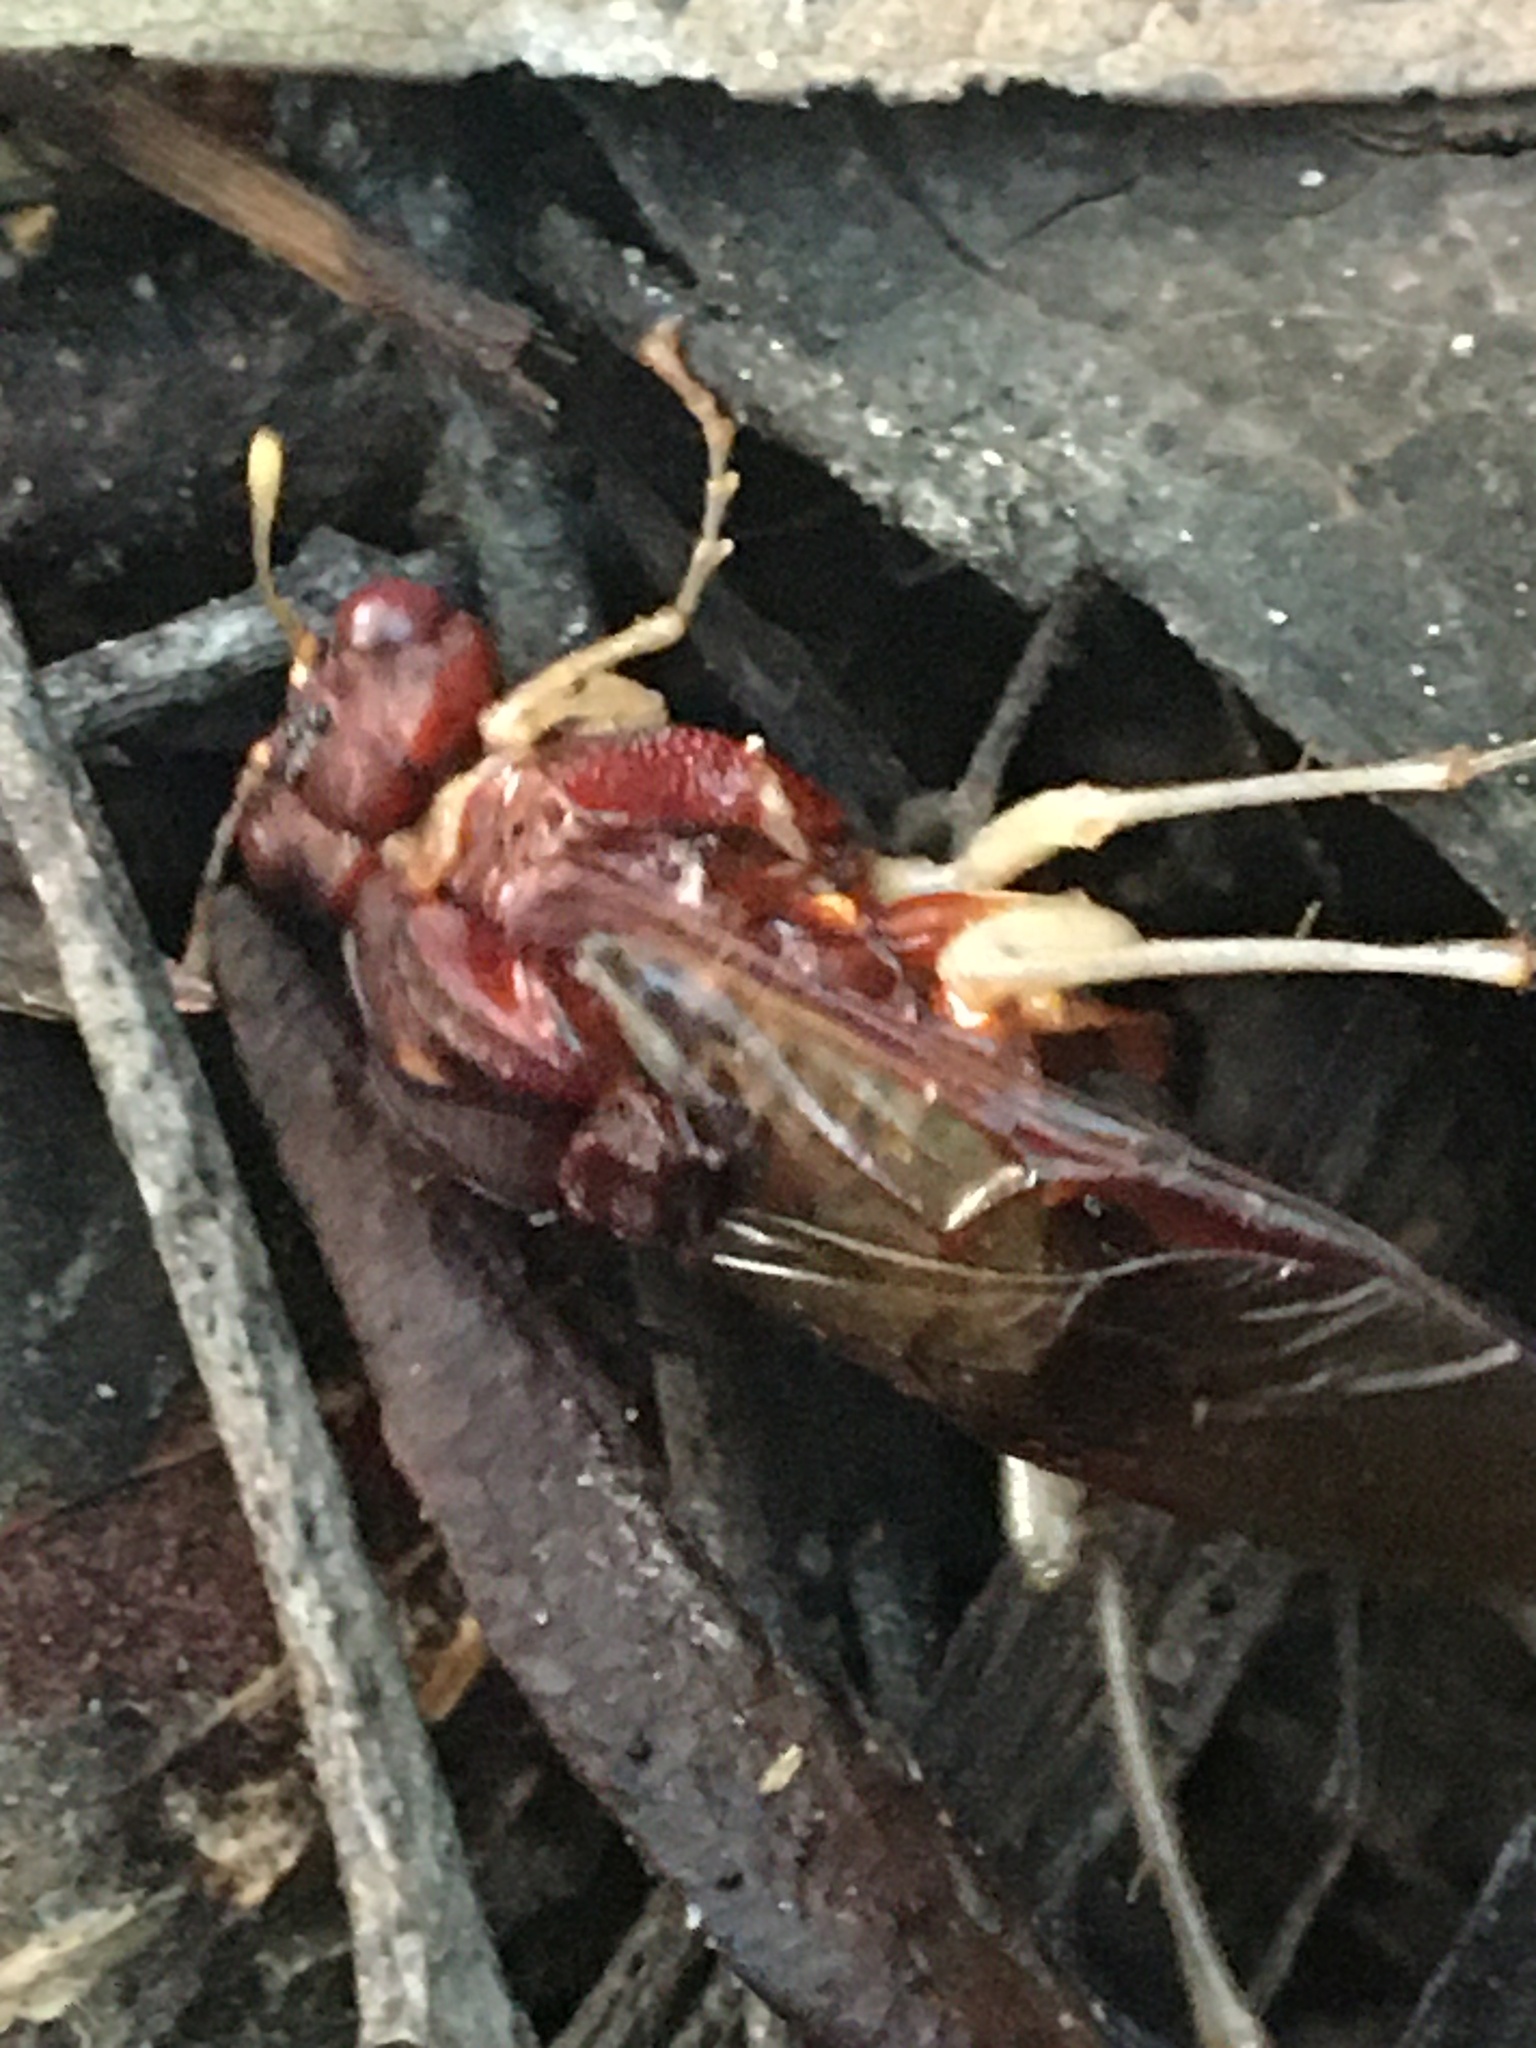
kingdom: Animalia
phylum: Arthropoda
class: Insecta
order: Hymenoptera
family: Pergidae
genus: Pergagrapta
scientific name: Pergagrapta
